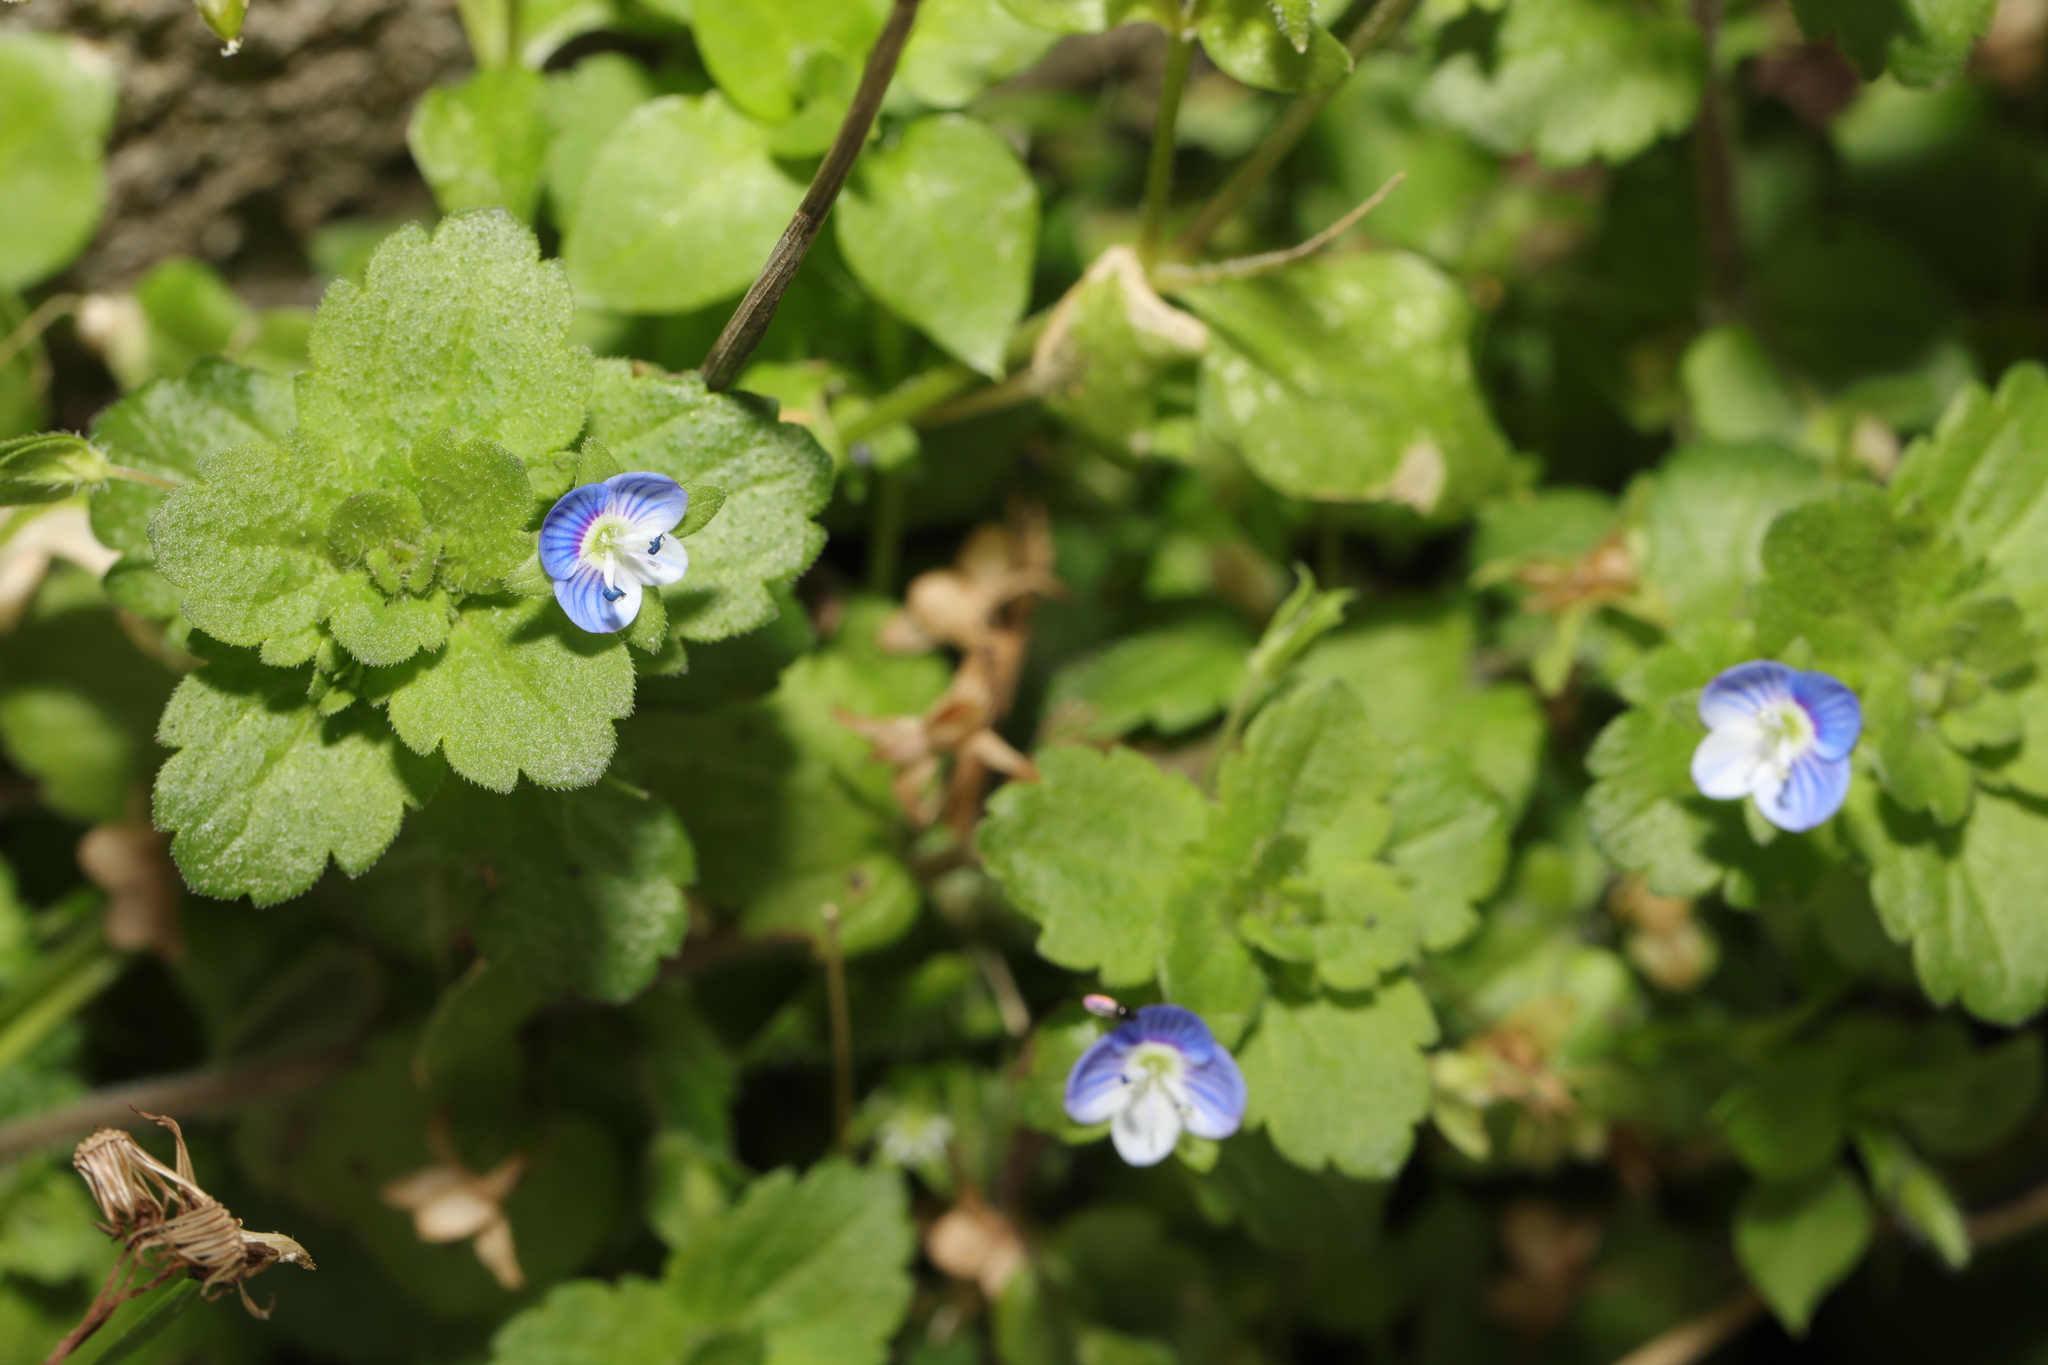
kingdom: Plantae
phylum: Tracheophyta
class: Magnoliopsida
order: Lamiales
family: Plantaginaceae
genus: Veronica
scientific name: Veronica persica
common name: Common field-speedwell
